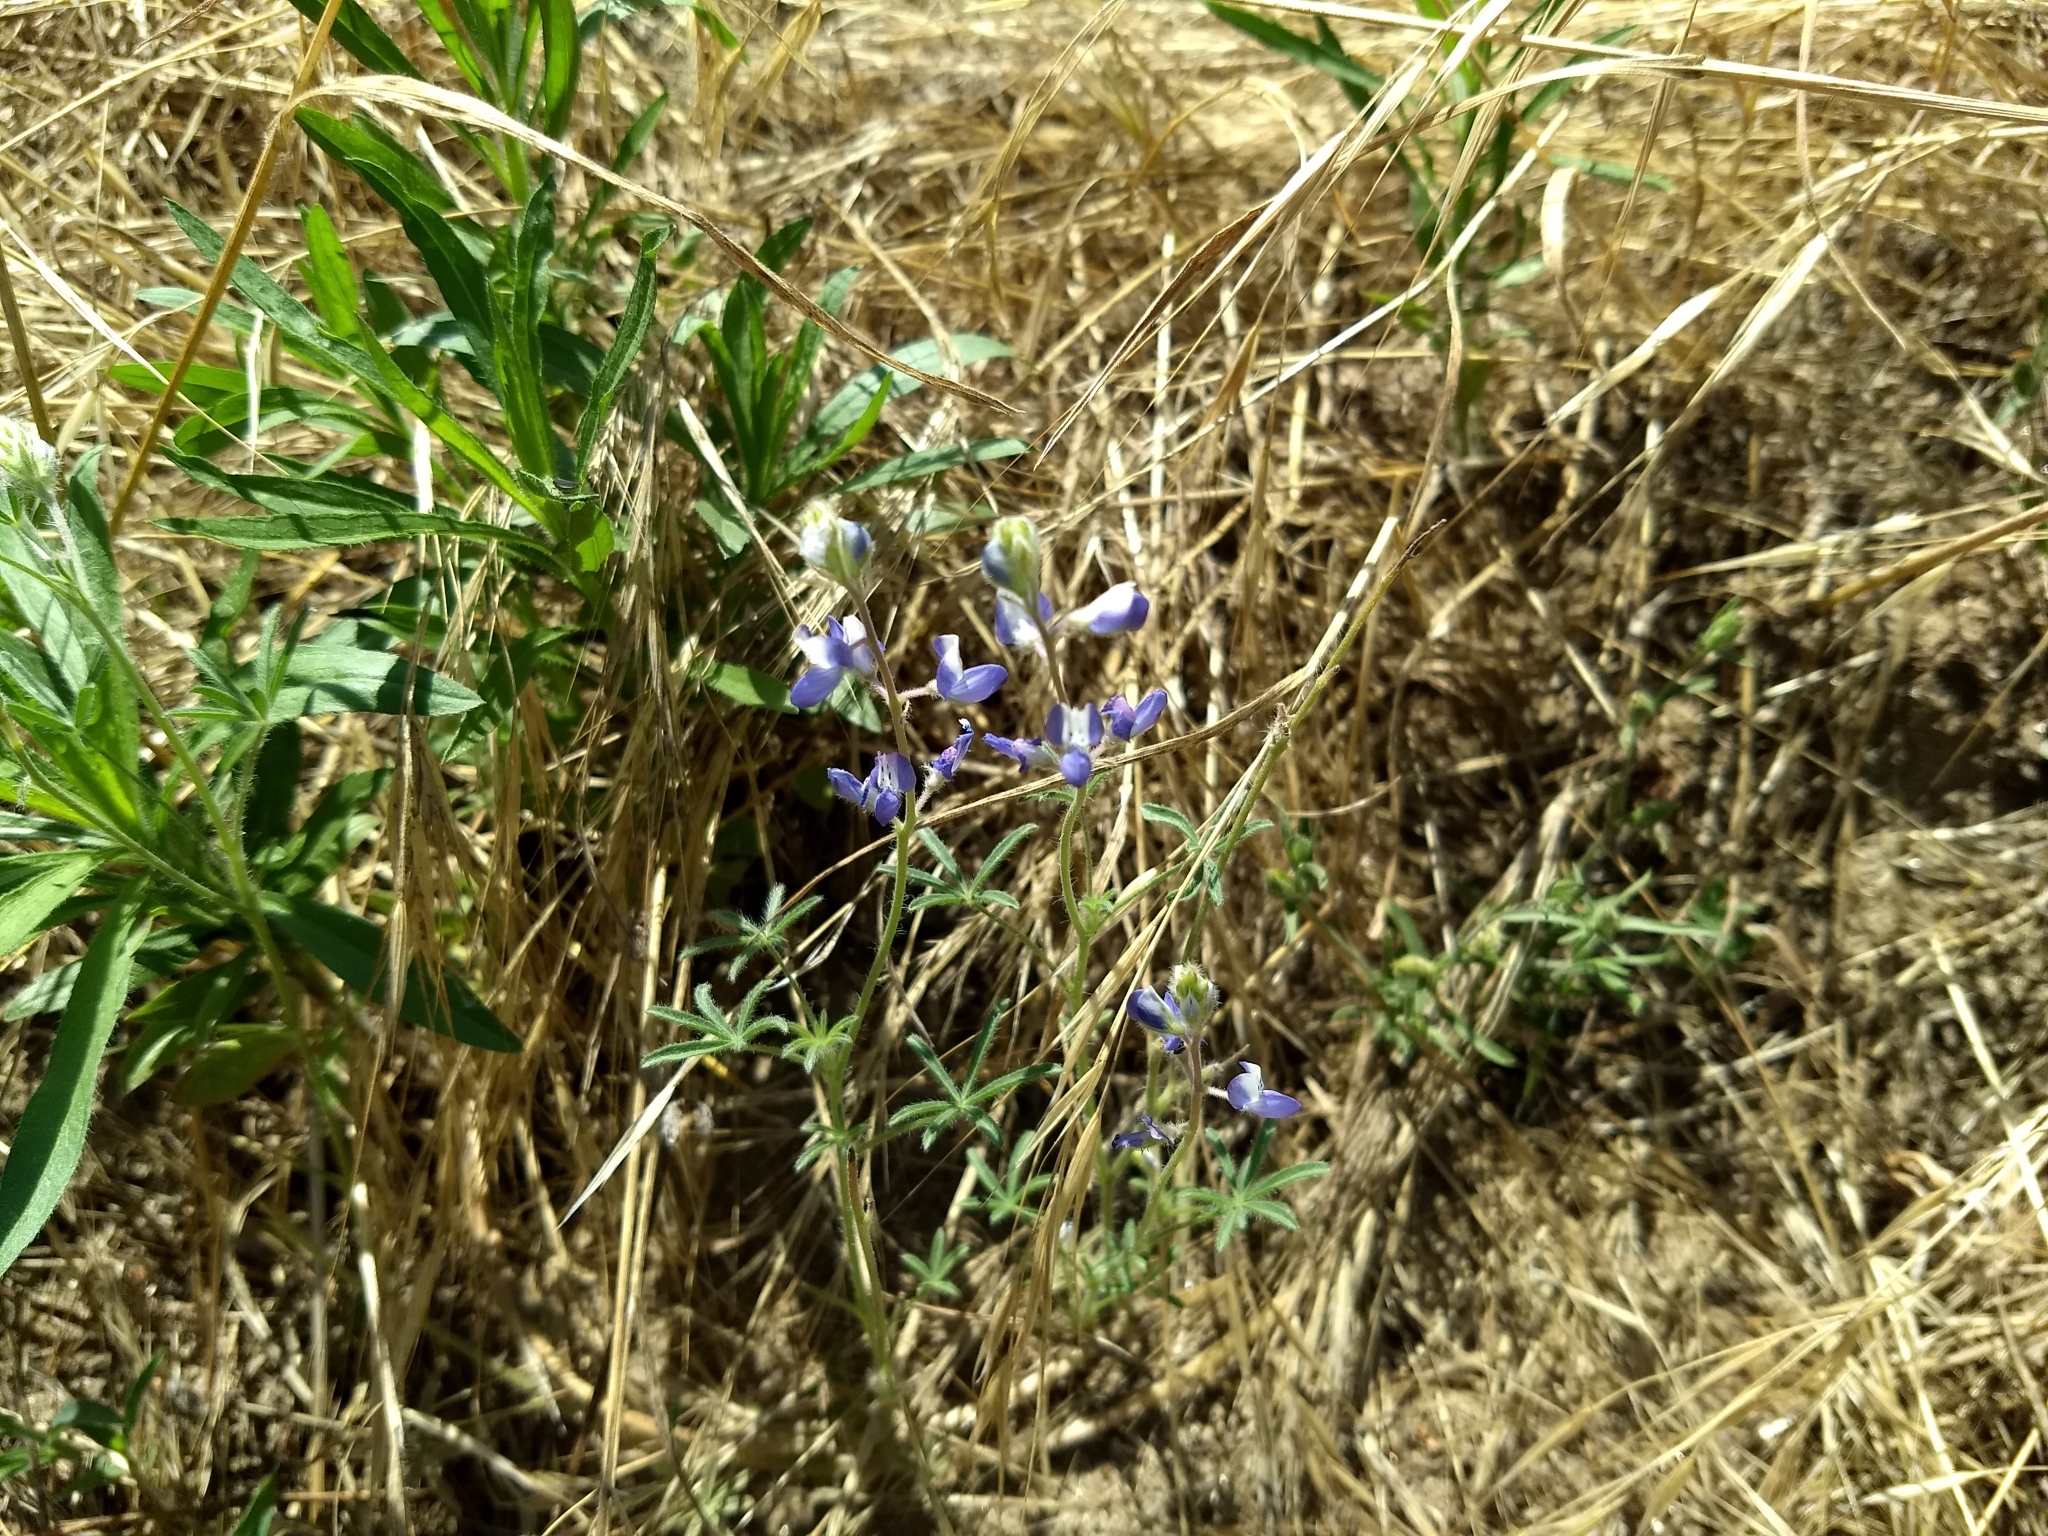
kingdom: Plantae
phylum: Tracheophyta
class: Magnoliopsida
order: Fabales
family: Fabaceae
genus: Lupinus
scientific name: Lupinus bicolor
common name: Miniature lupine
